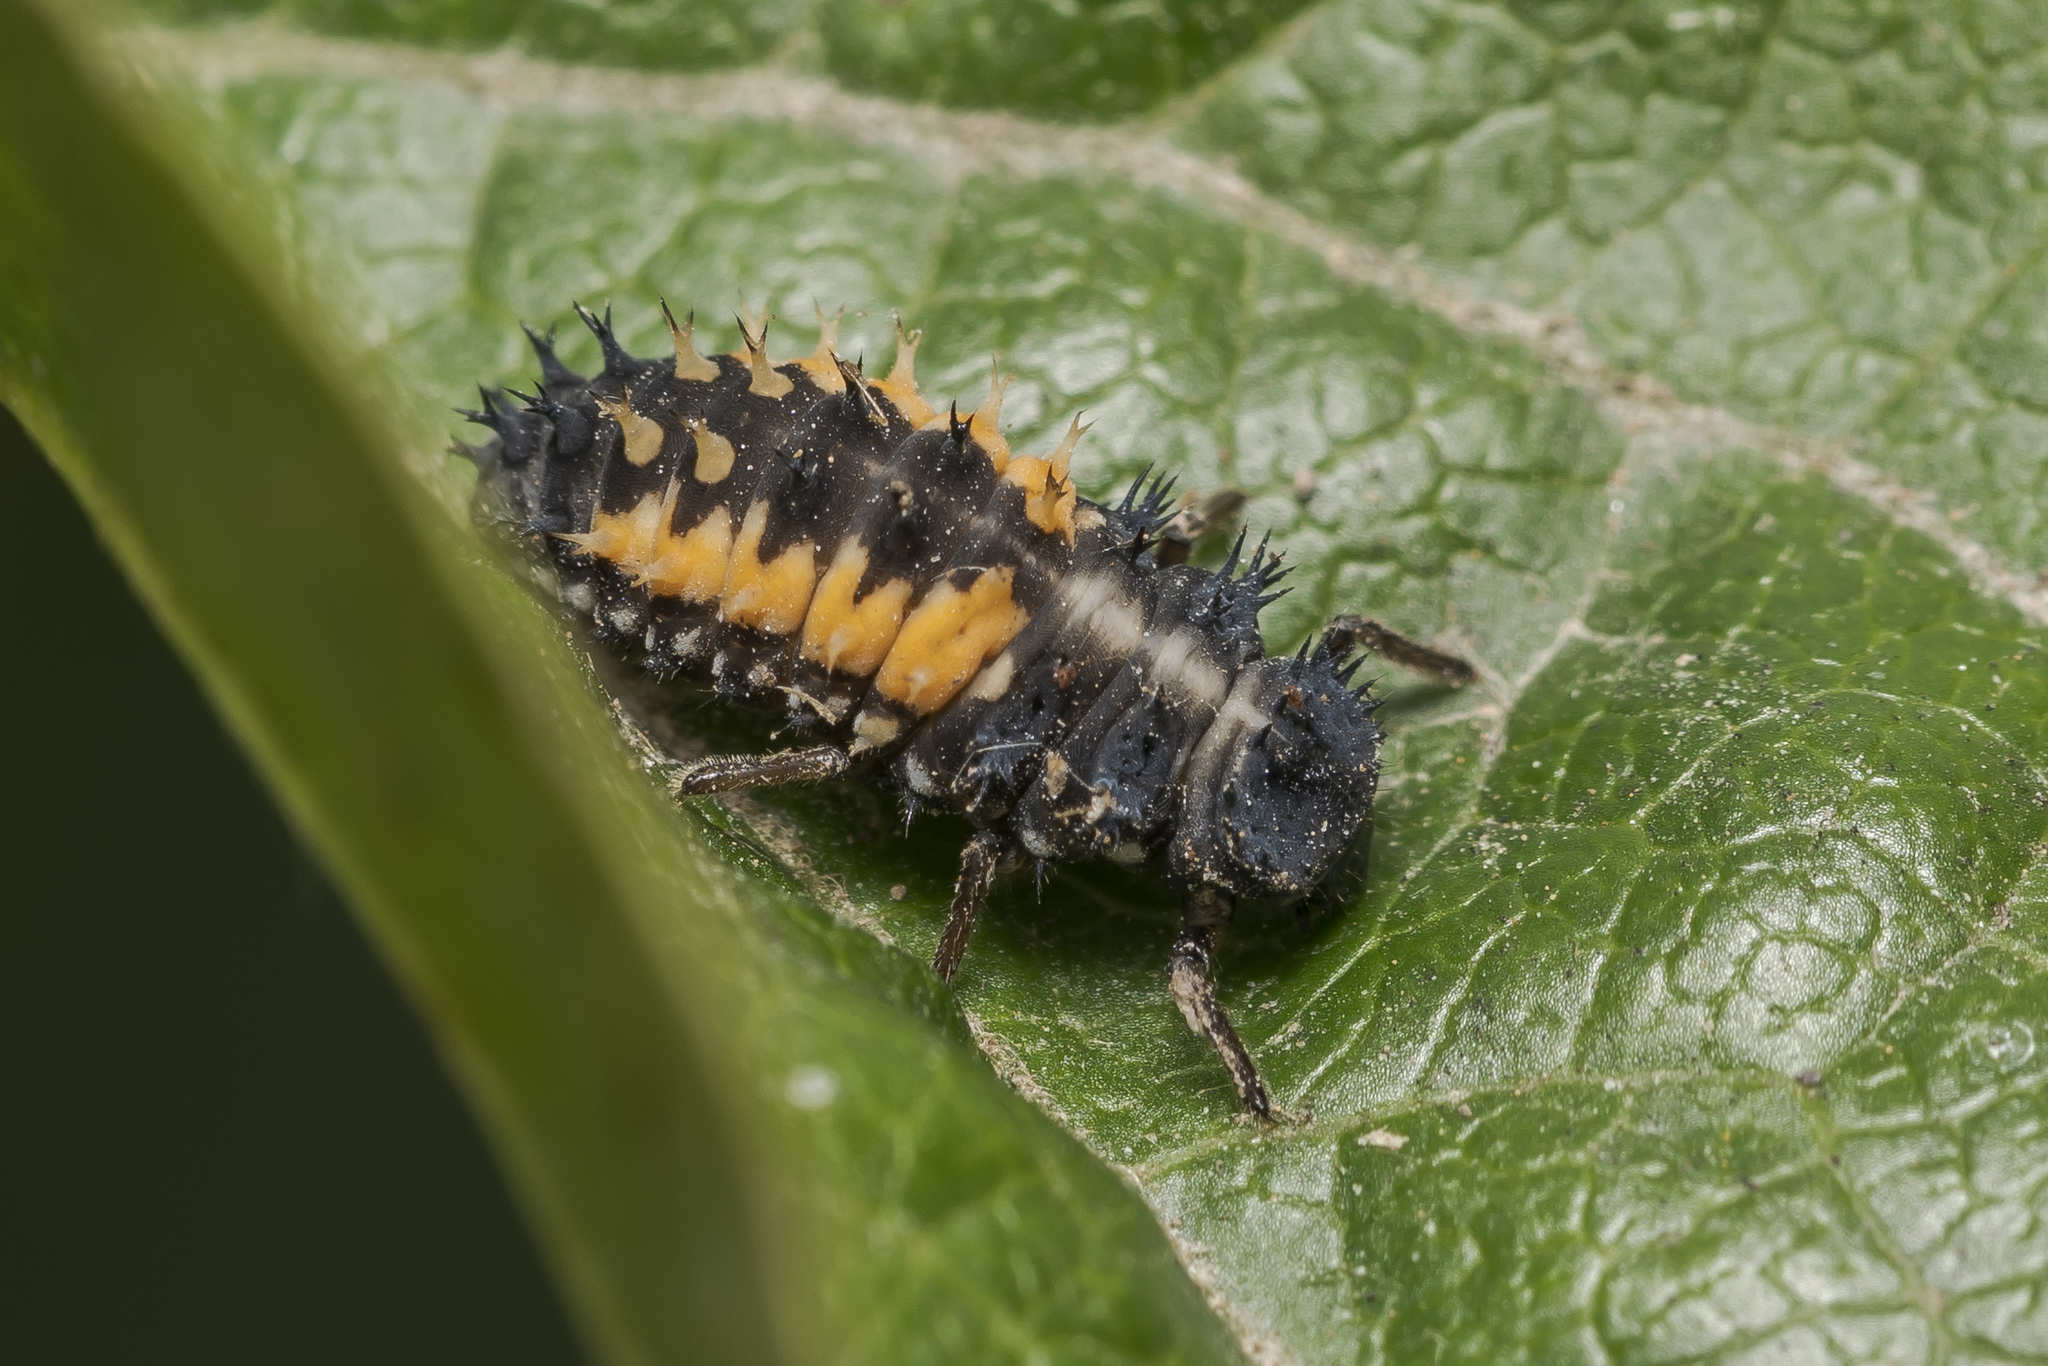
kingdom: Animalia
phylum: Arthropoda
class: Insecta
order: Coleoptera
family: Coccinellidae
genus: Harmonia
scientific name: Harmonia axyridis
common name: Harlequin ladybird
